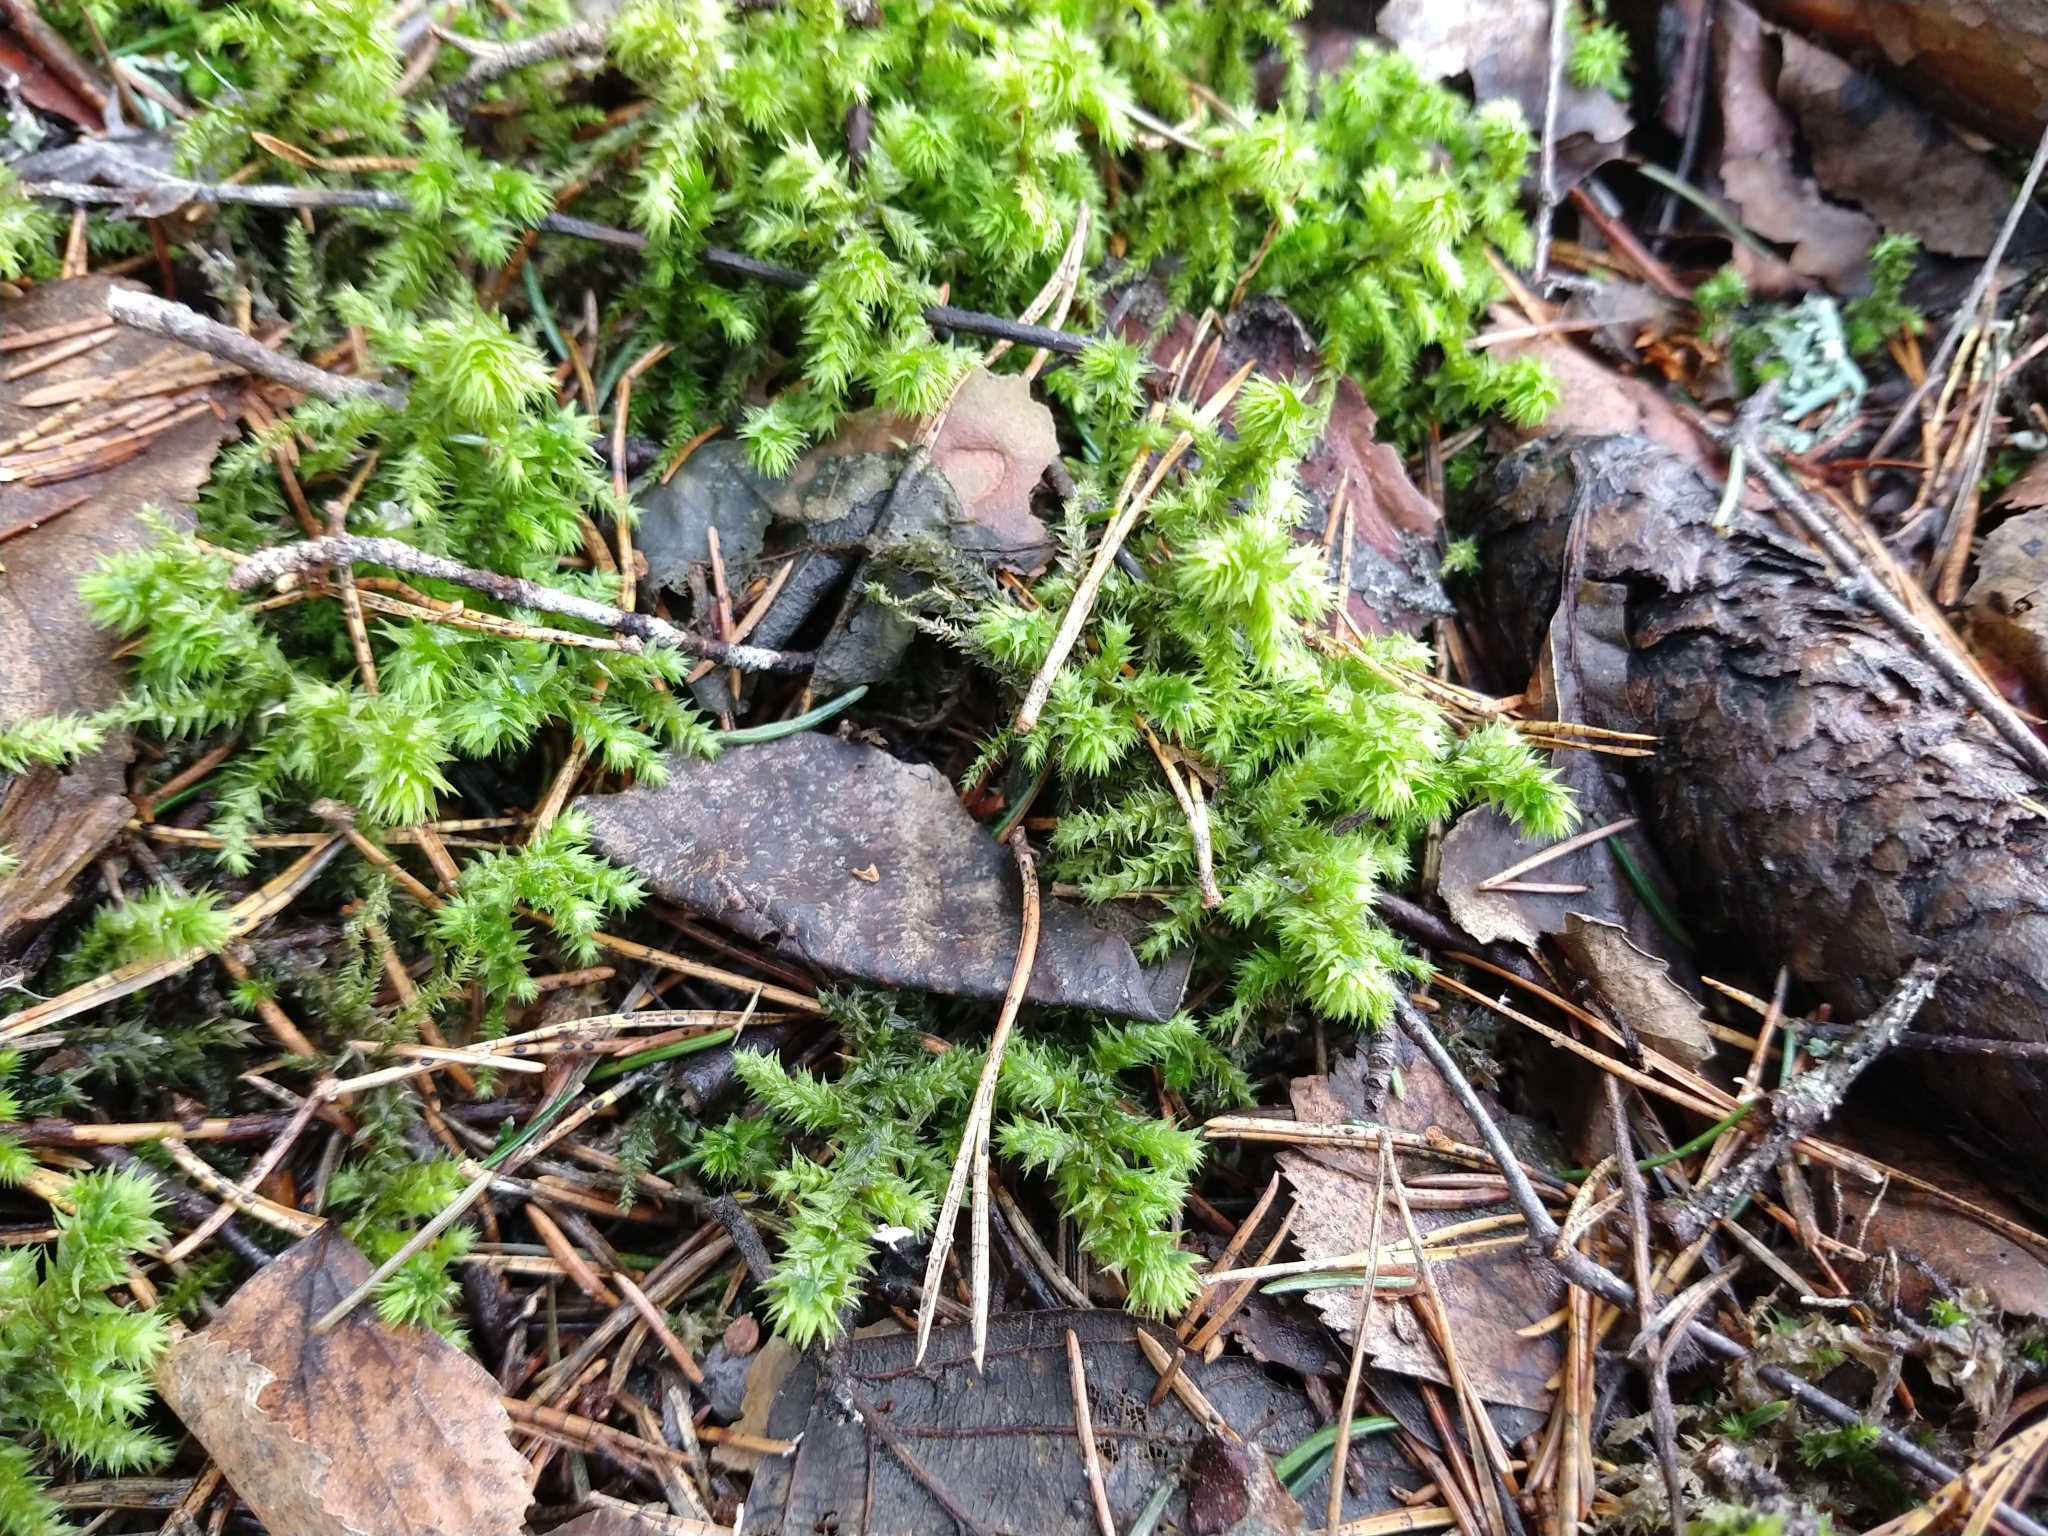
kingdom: Plantae
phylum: Bryophyta
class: Bryopsida
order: Hypnales
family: Hylocomiaceae
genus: Hylocomiadelphus
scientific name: Hylocomiadelphus triquetrus
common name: Rough goose neck moss
